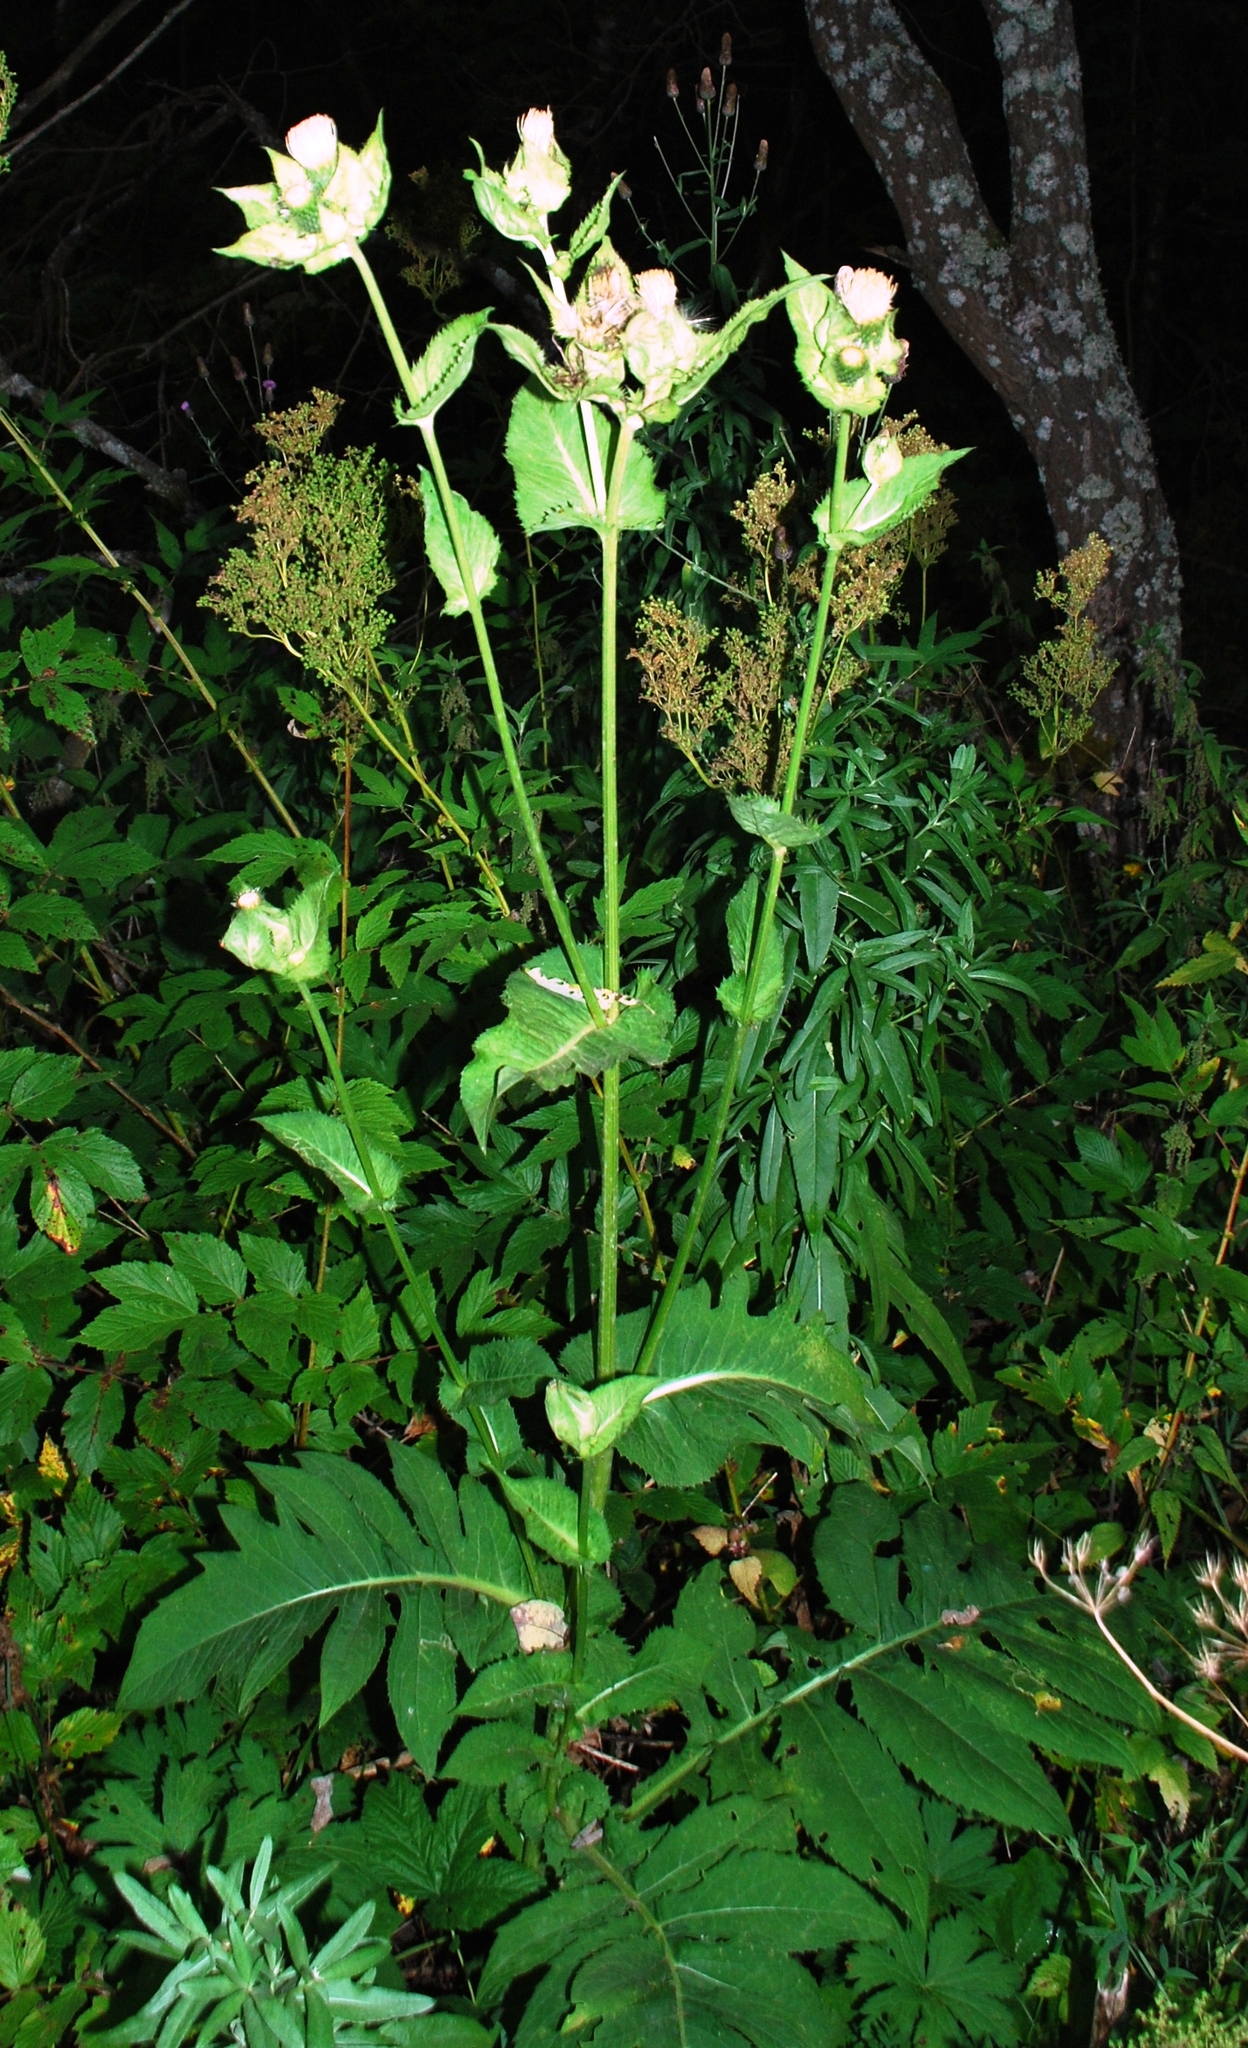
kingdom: Plantae
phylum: Tracheophyta
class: Magnoliopsida
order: Asterales
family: Asteraceae
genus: Cirsium
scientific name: Cirsium oleraceum
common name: Cabbage thistle
